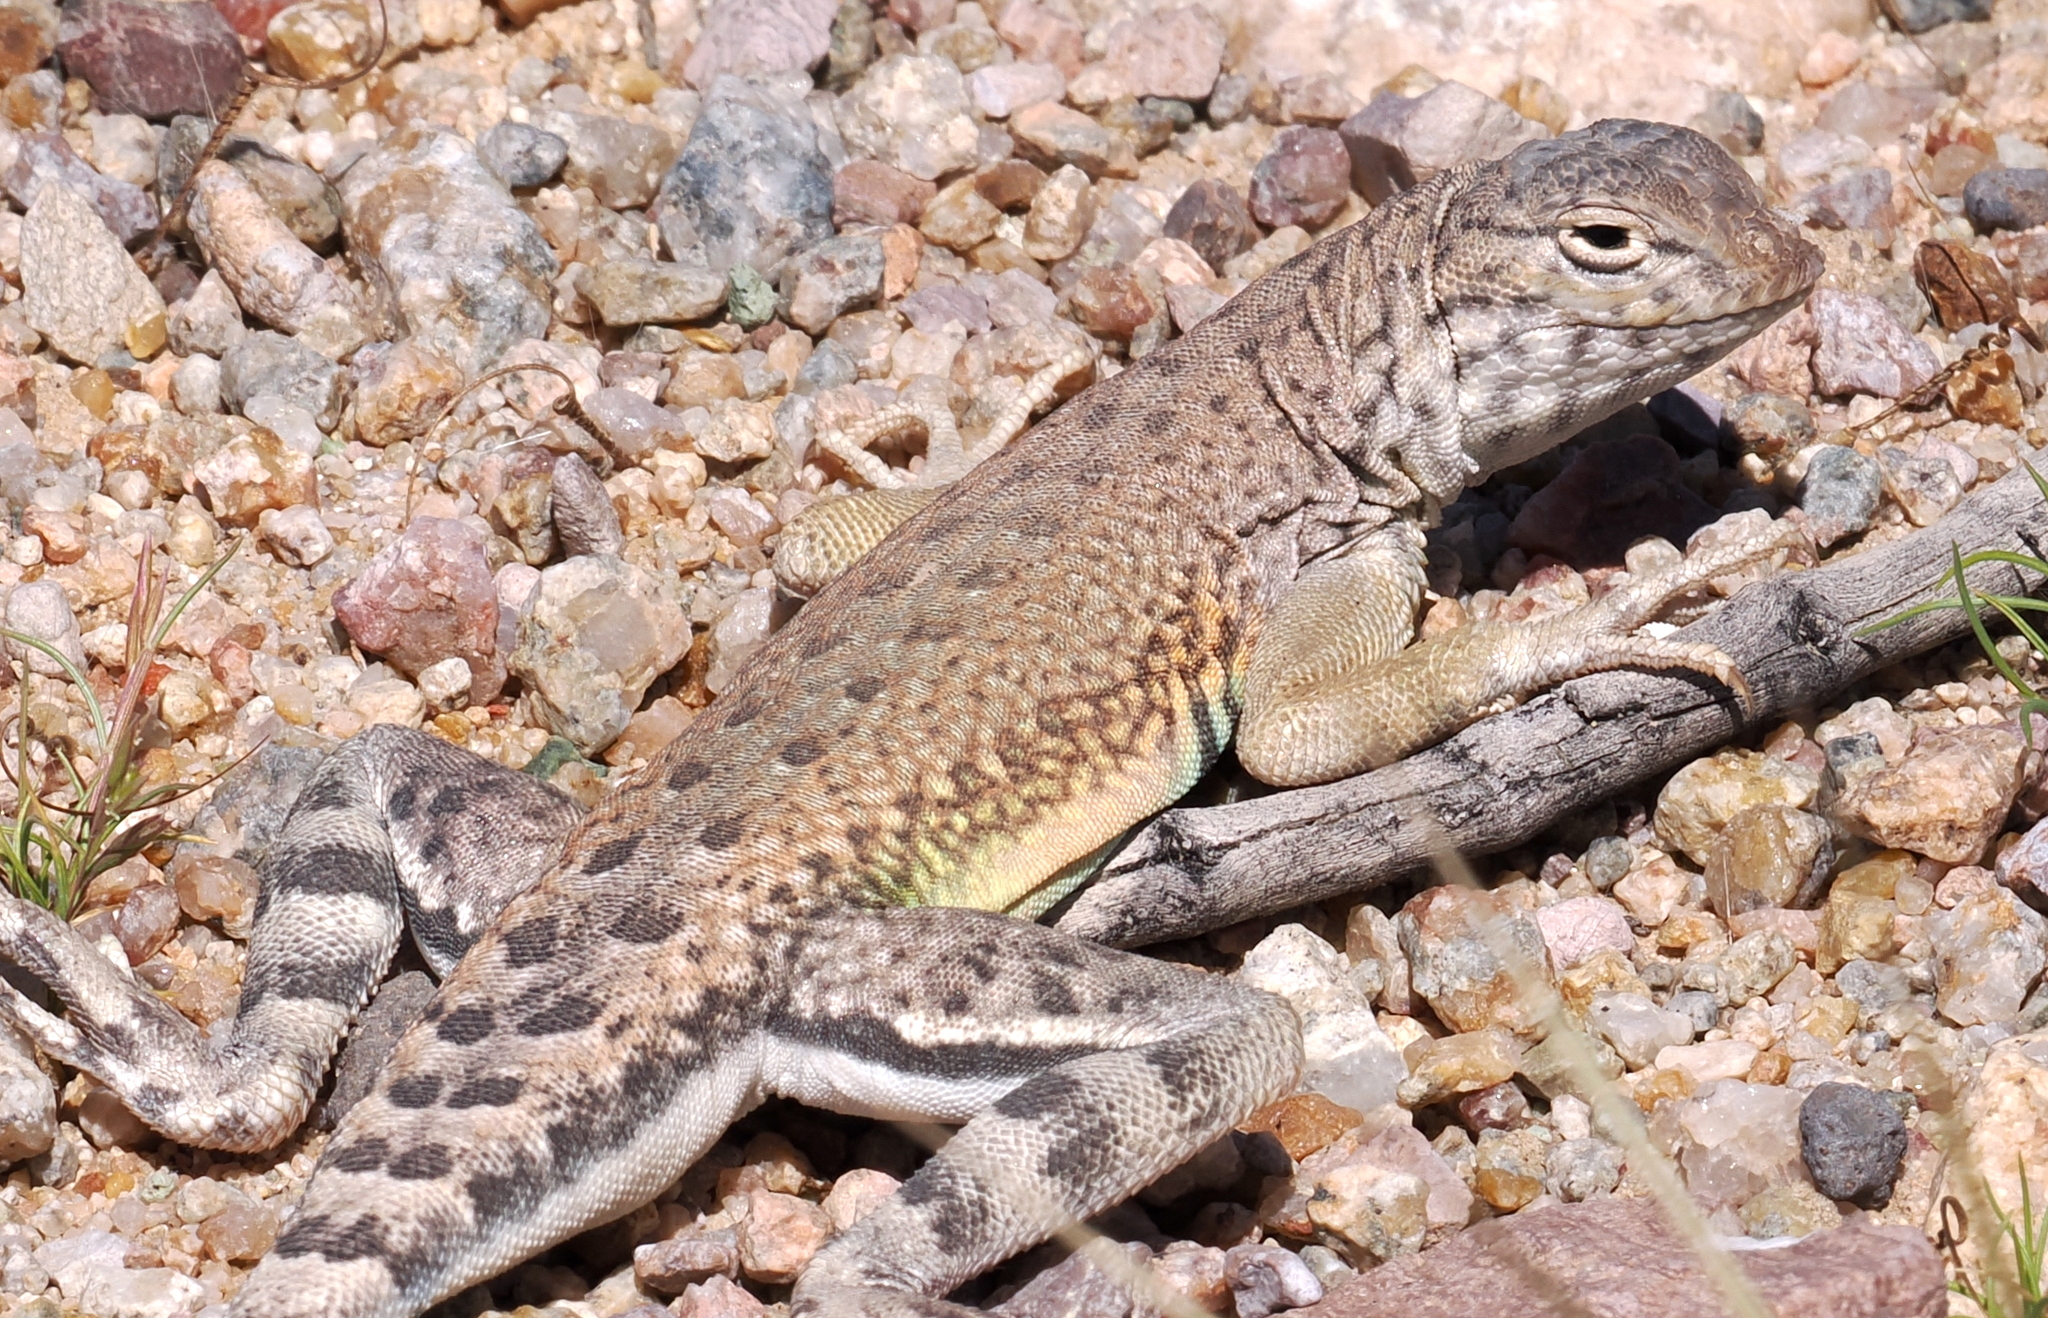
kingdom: Animalia
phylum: Chordata
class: Squamata
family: Phrynosomatidae
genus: Callisaurus
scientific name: Callisaurus draconoides
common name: Zebra-tailed lizard
